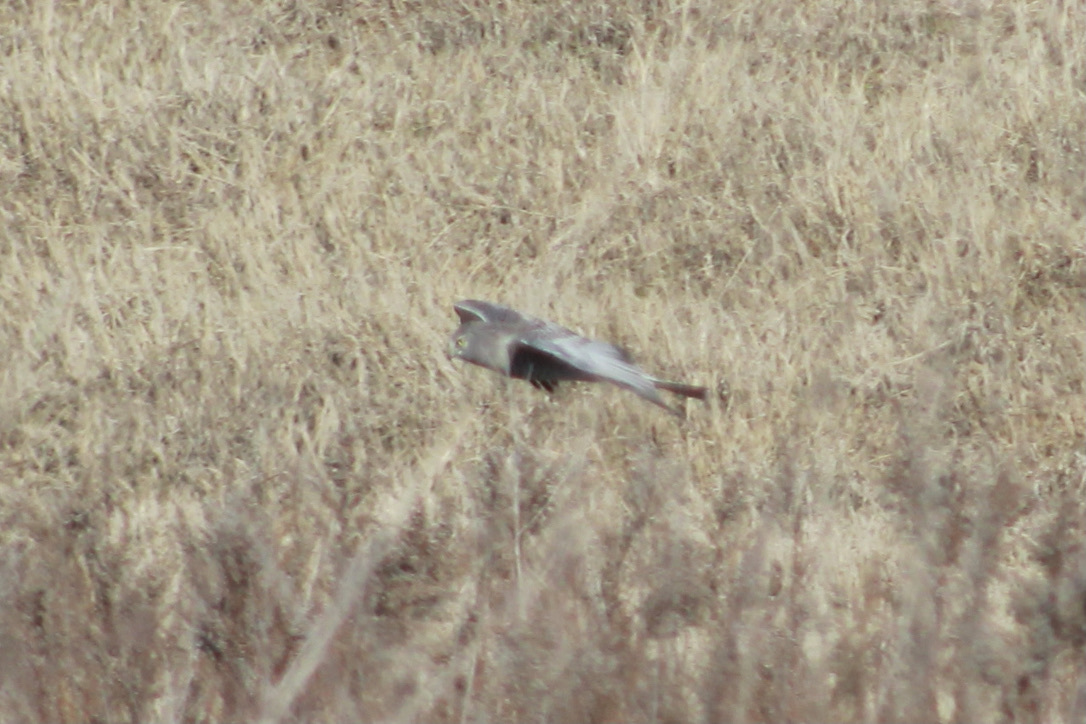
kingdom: Animalia
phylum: Chordata
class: Aves
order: Accipitriformes
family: Accipitridae
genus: Circus
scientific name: Circus cyaneus
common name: Hen harrier
